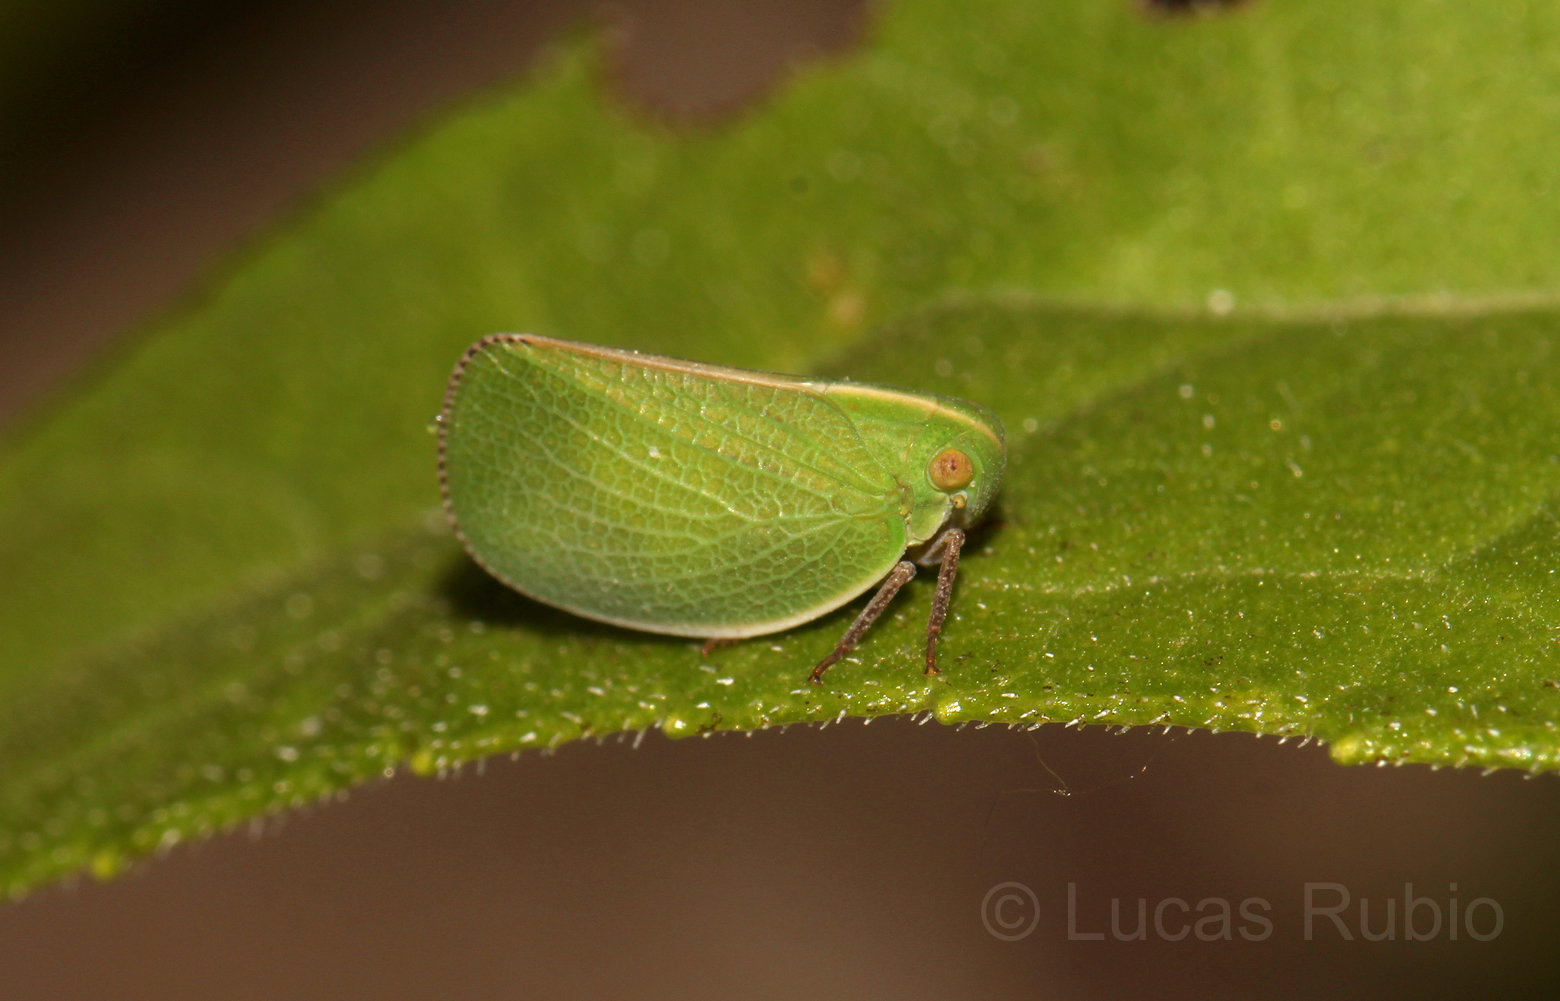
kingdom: Animalia
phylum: Arthropoda
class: Insecta
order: Hemiptera
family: Acanaloniidae
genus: Acanalonia
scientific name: Acanalonia chloris
